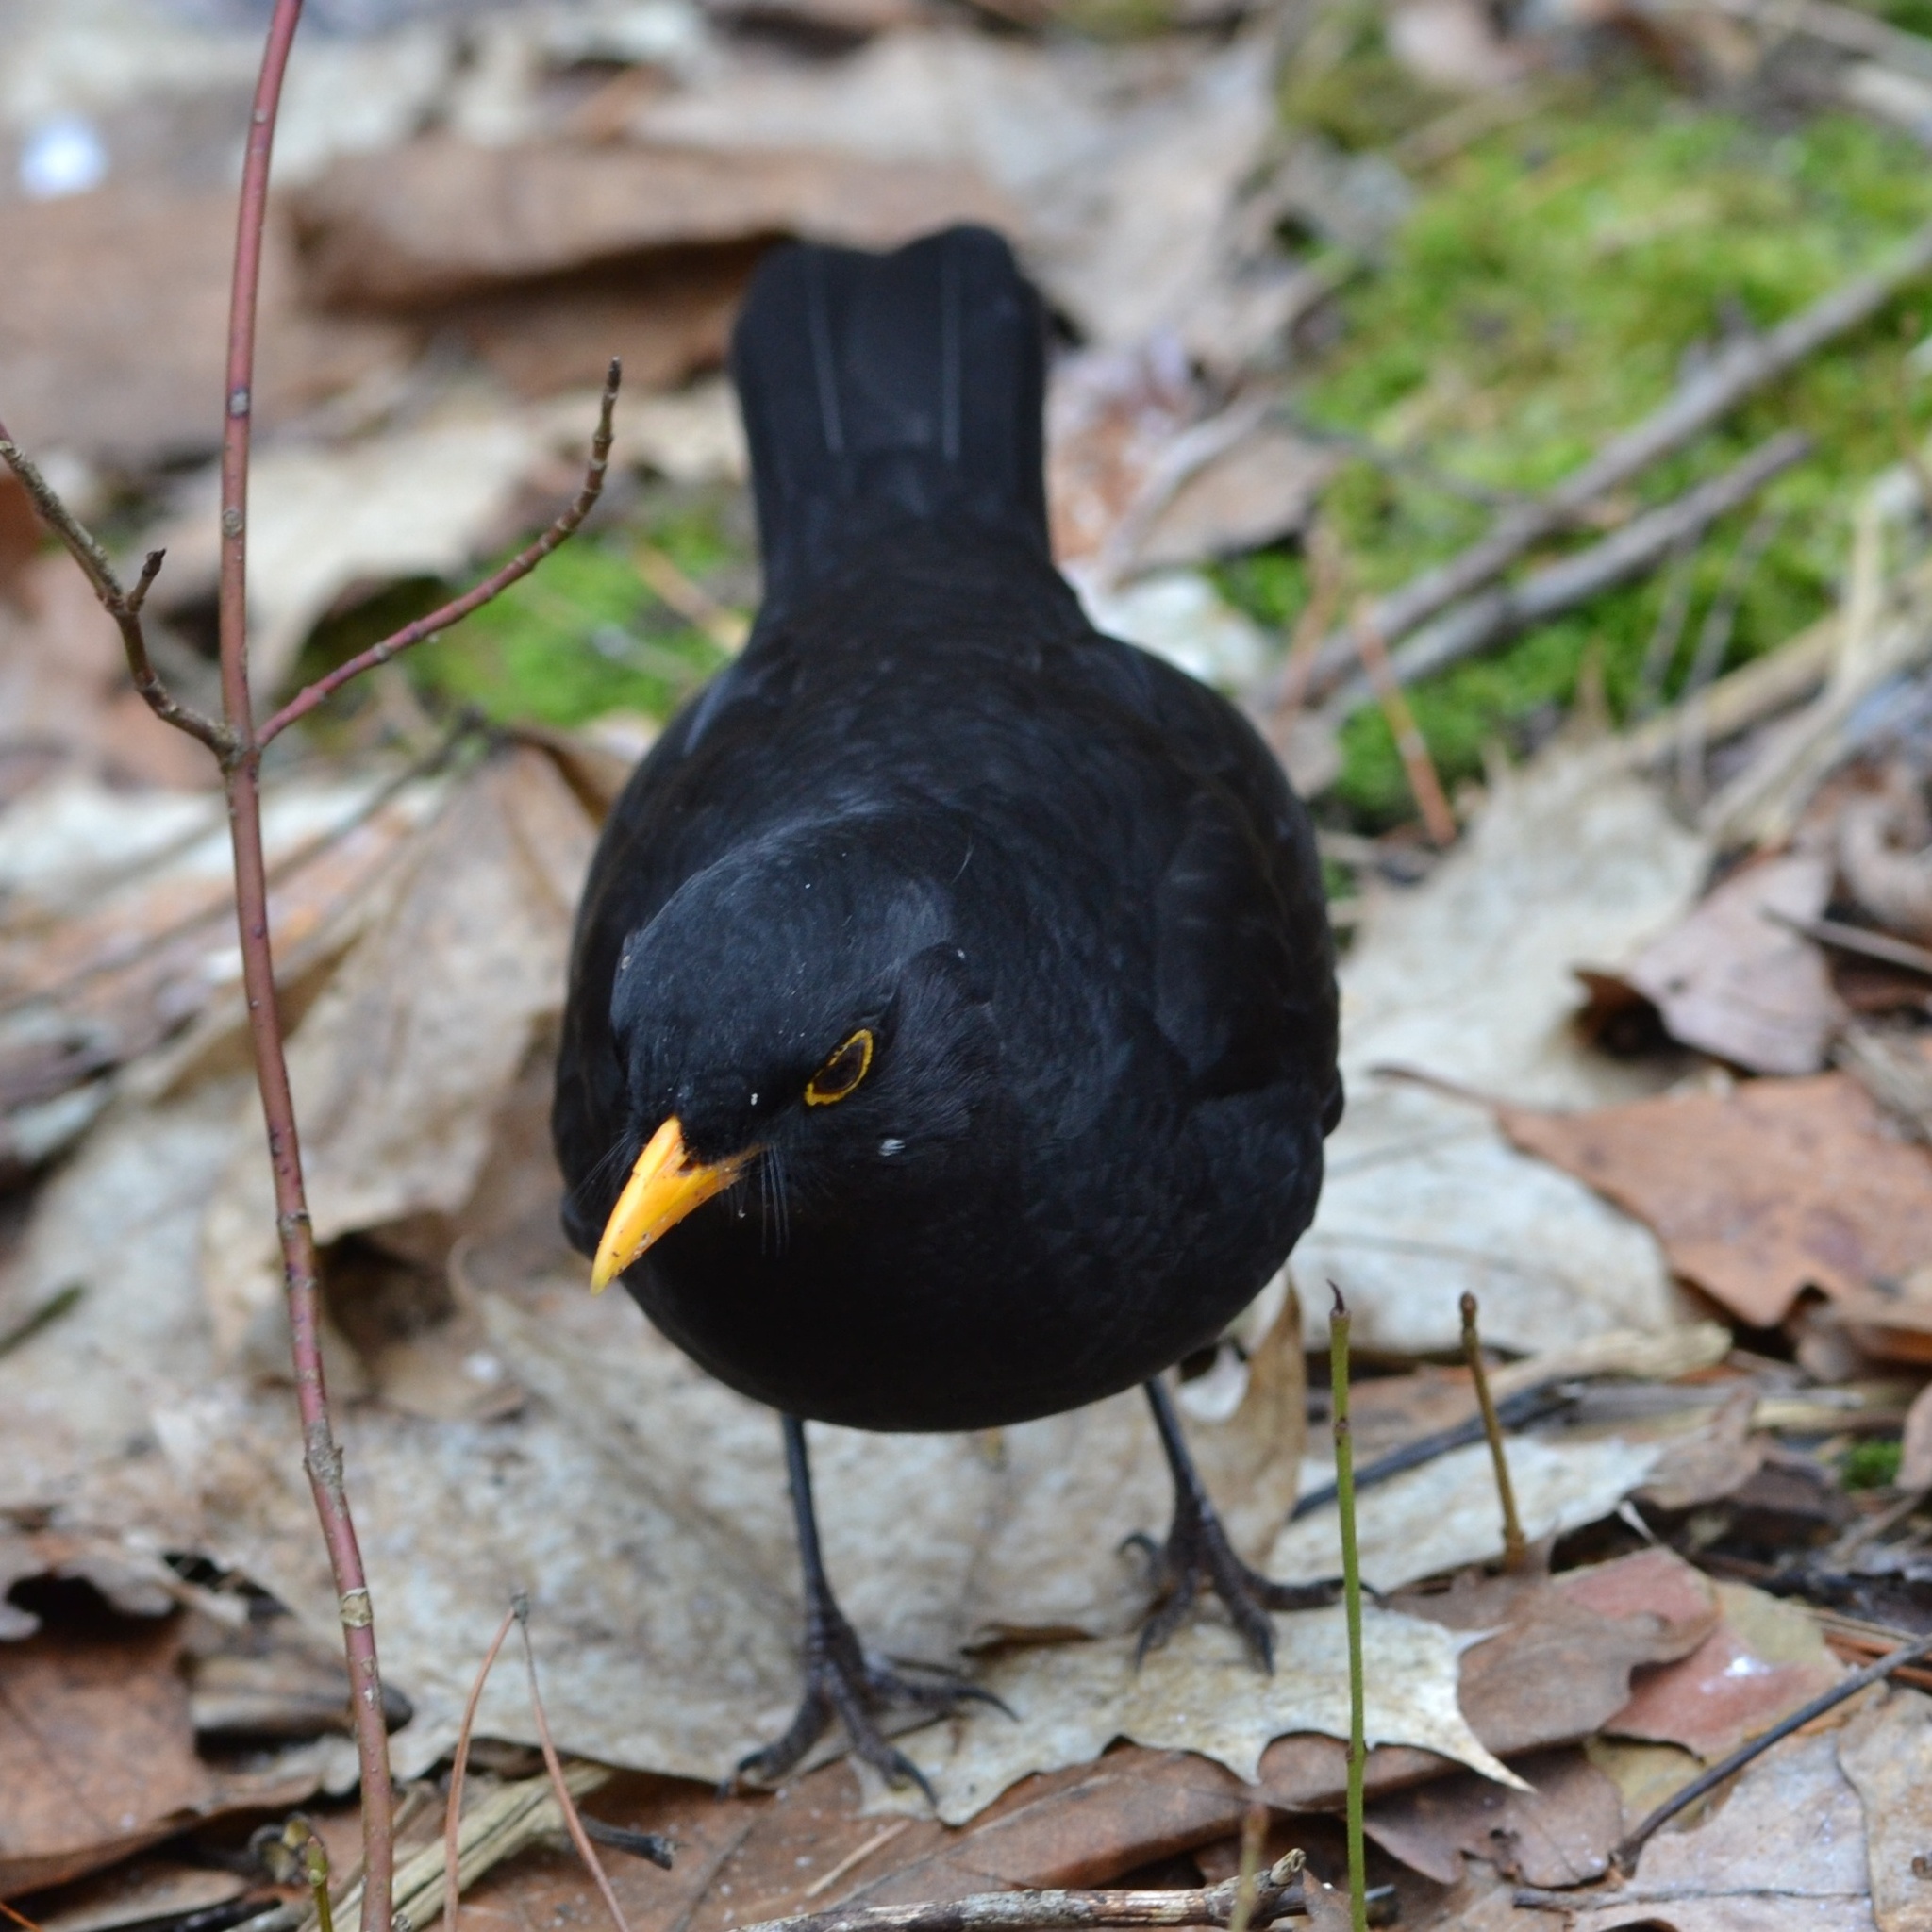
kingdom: Animalia
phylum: Chordata
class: Aves
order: Passeriformes
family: Turdidae
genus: Turdus
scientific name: Turdus merula
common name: Common blackbird
